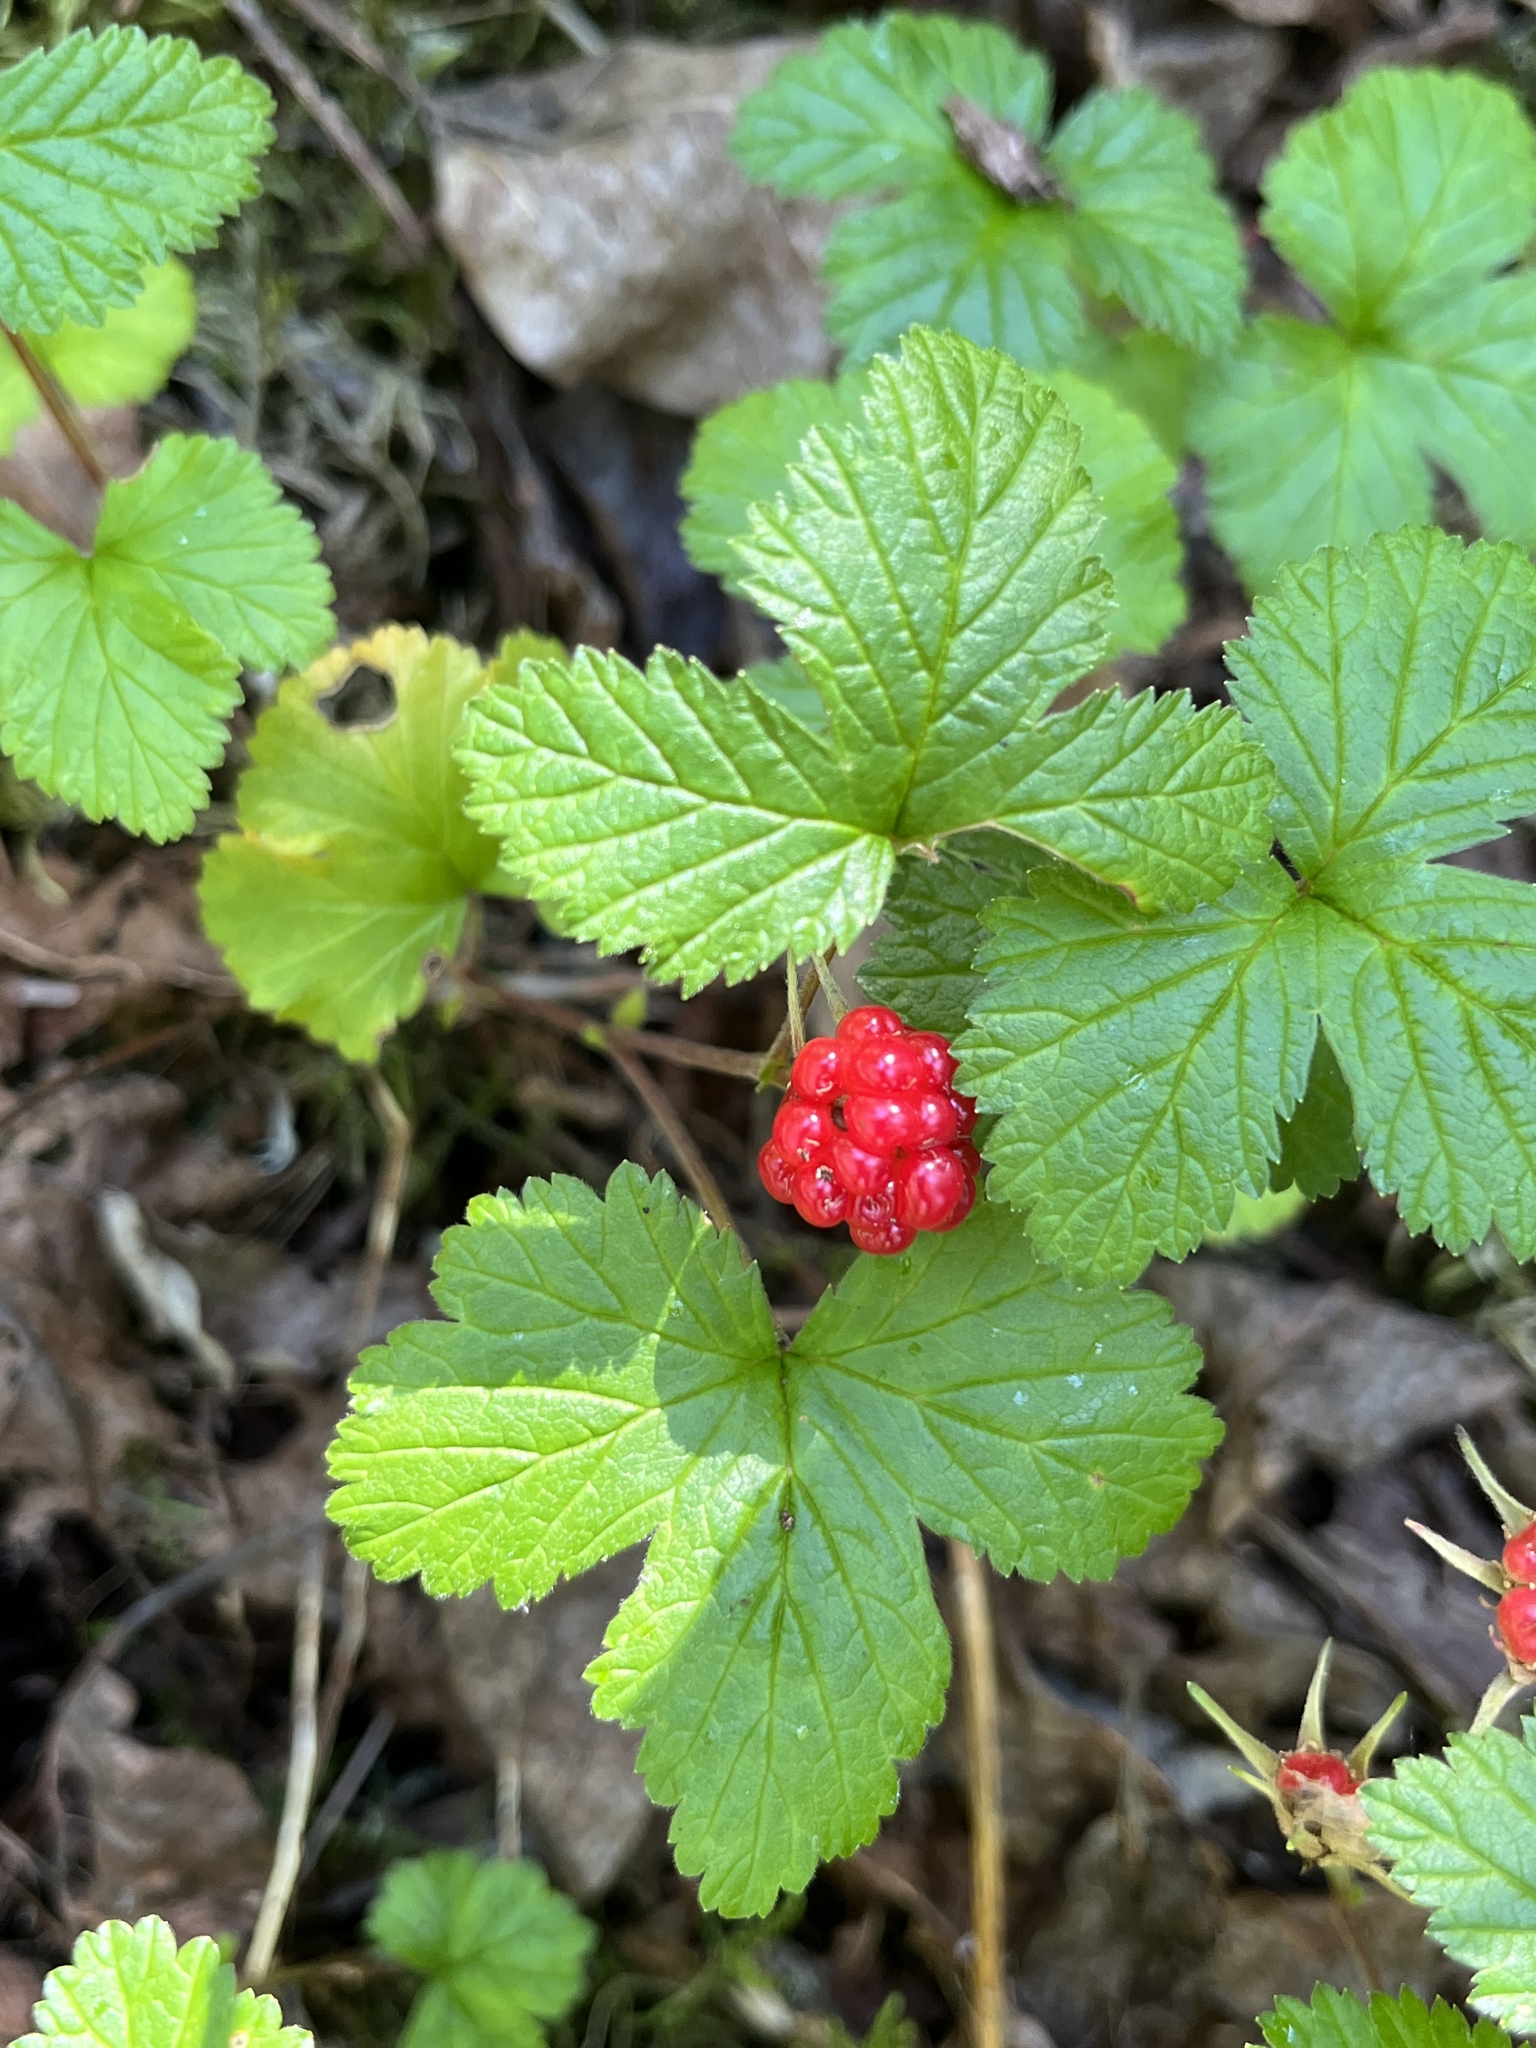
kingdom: Plantae
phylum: Tracheophyta
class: Magnoliopsida
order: Rosales
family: Rosaceae
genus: Rubus
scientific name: Rubus arcticus
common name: Arctic bramble
